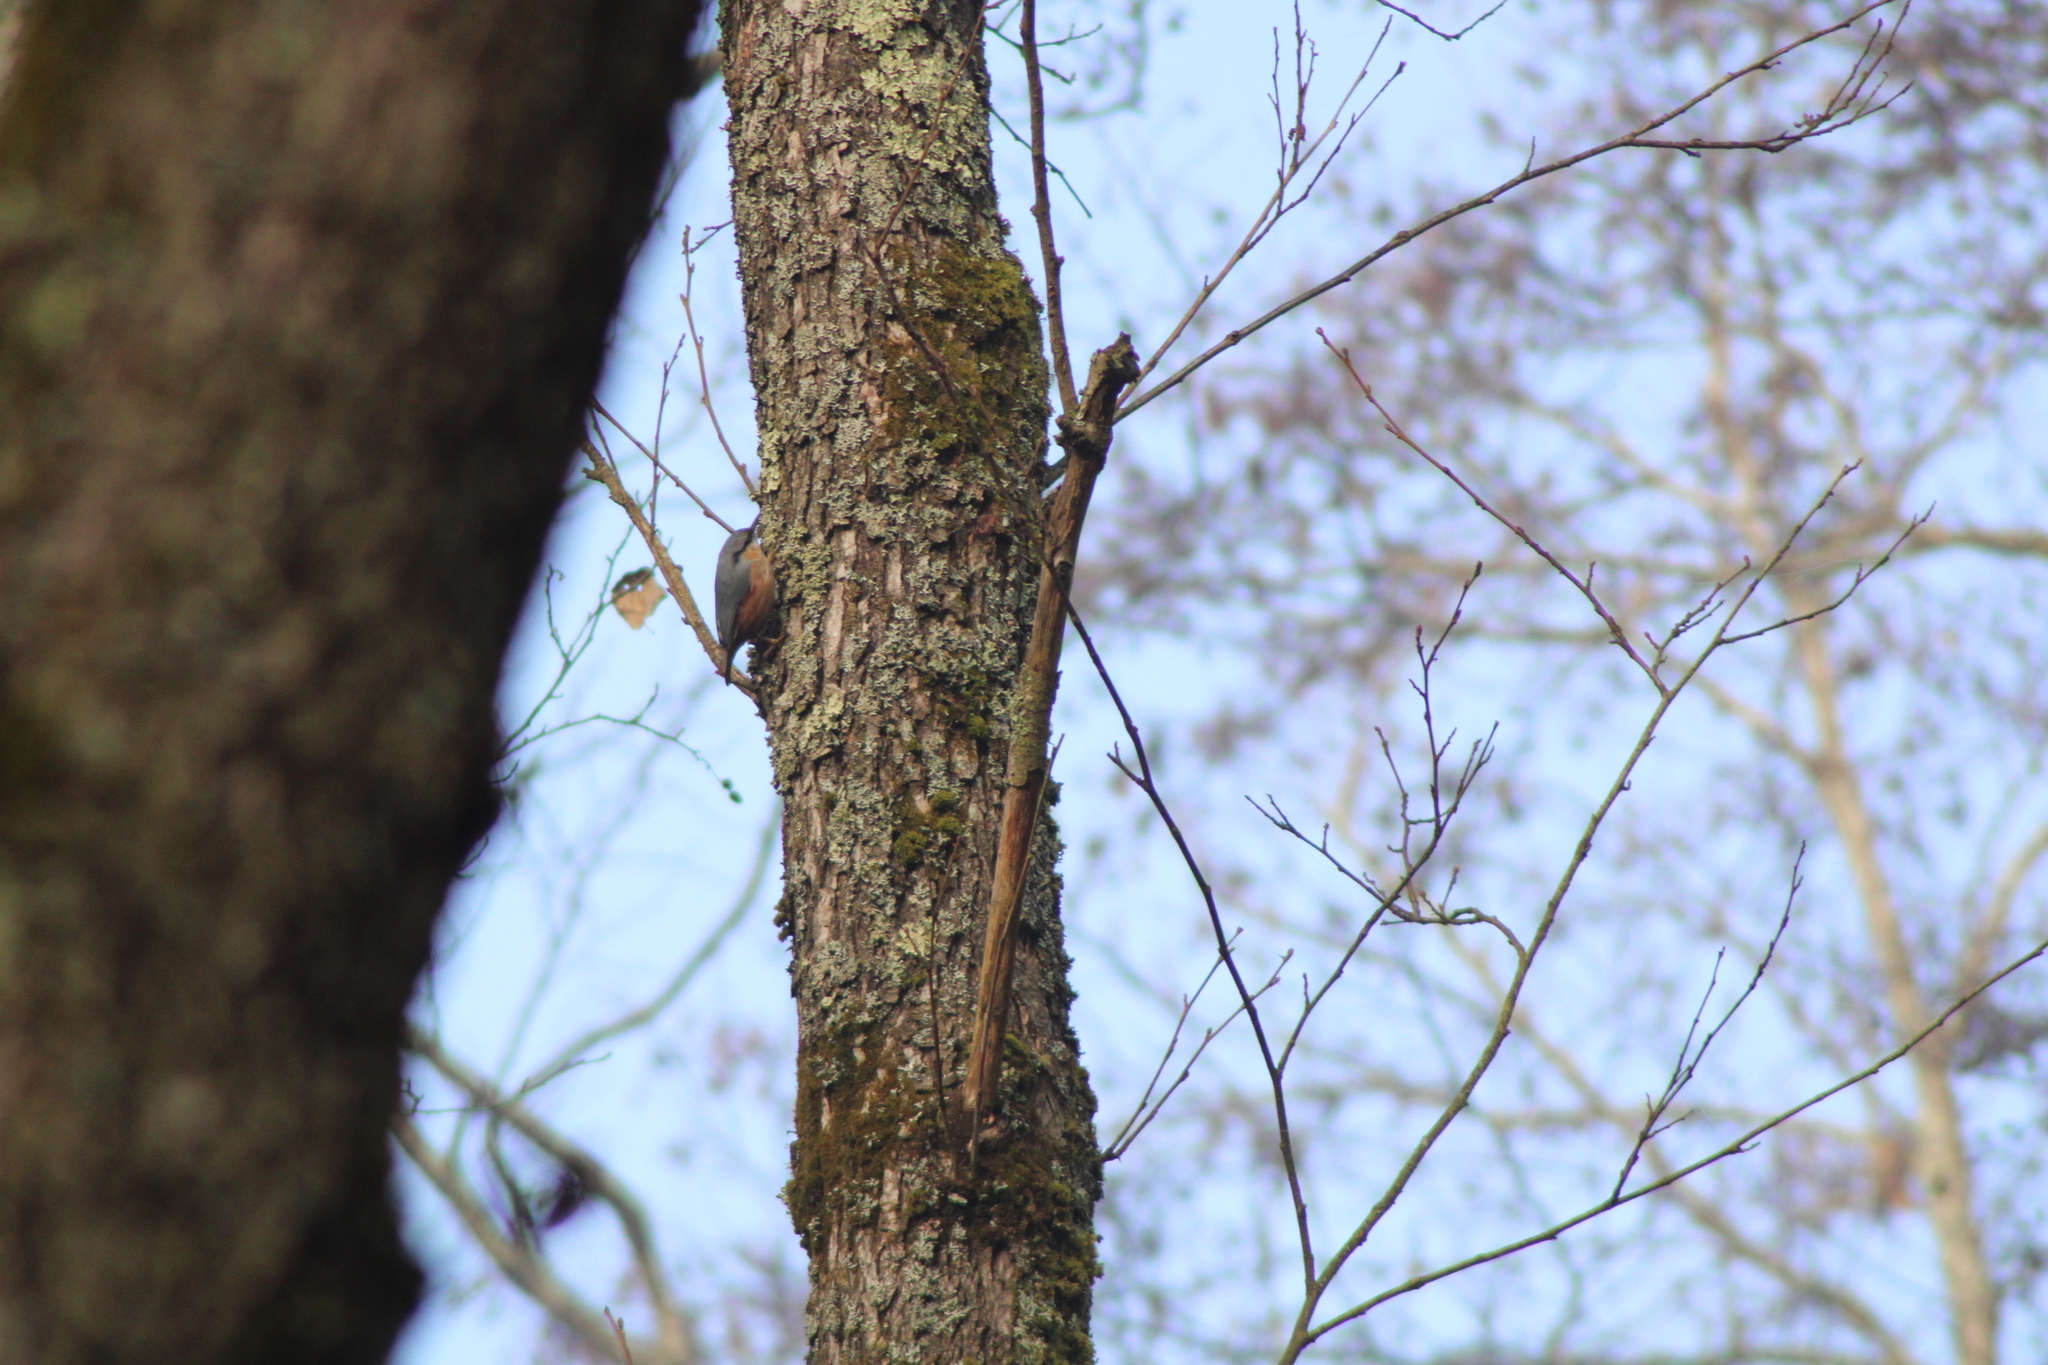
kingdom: Animalia
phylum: Chordata
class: Aves
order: Passeriformes
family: Sittidae
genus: Sitta
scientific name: Sitta europaea
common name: Eurasian nuthatch
